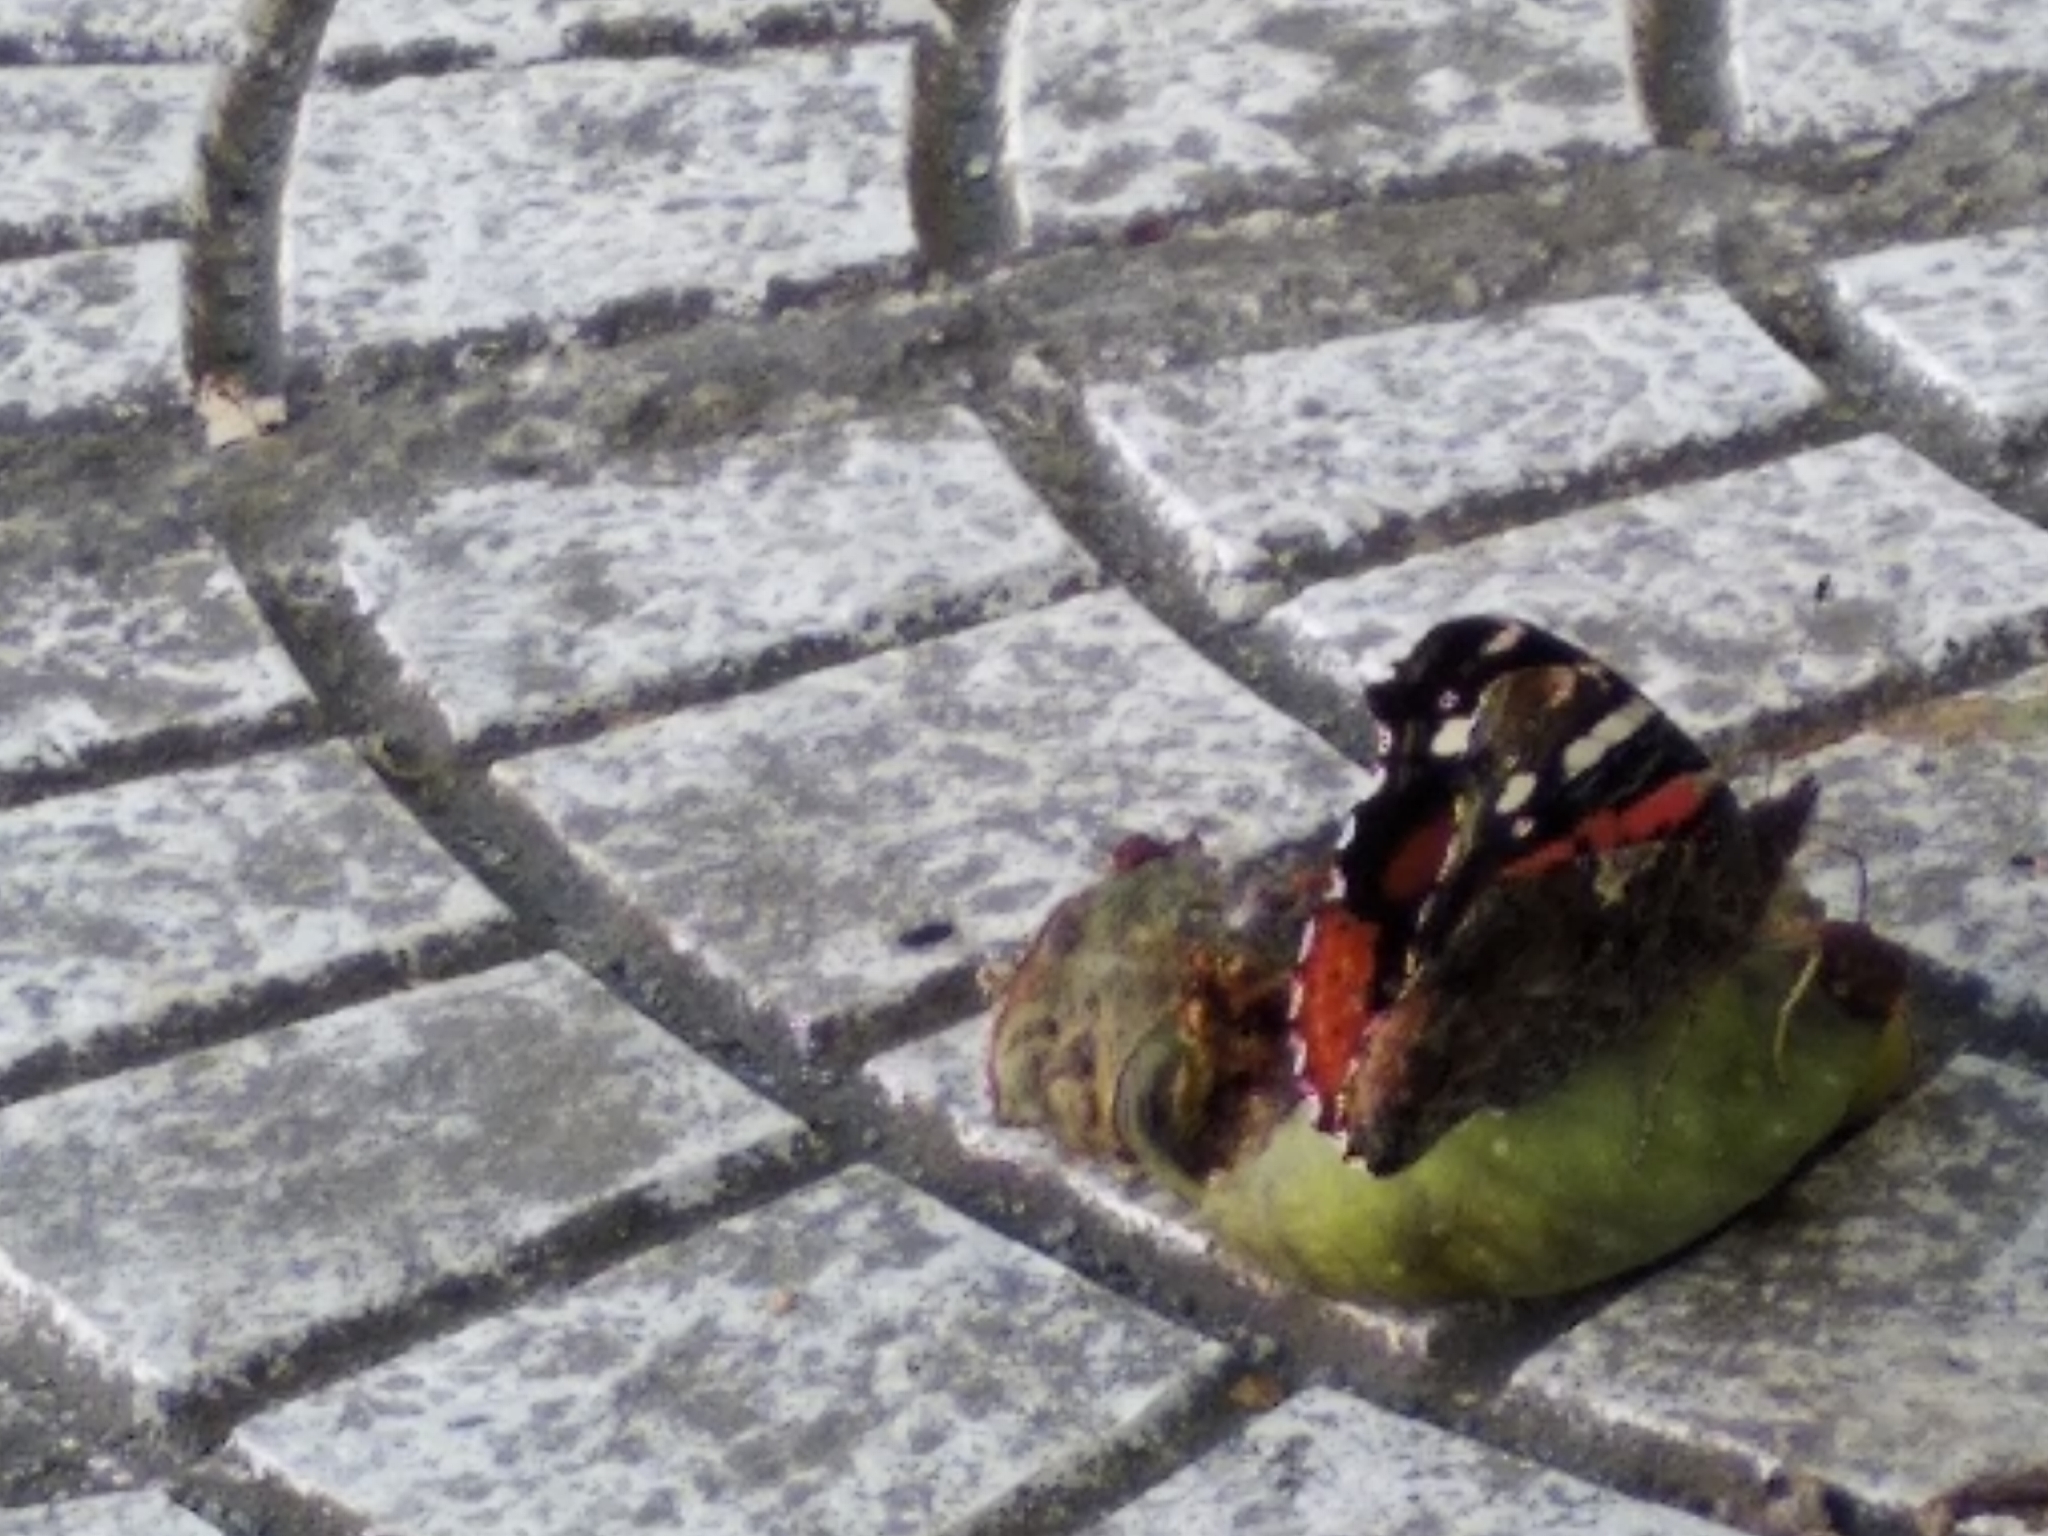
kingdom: Animalia
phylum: Arthropoda
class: Insecta
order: Lepidoptera
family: Nymphalidae
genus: Vanessa
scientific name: Vanessa atalanta
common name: Red admiral
